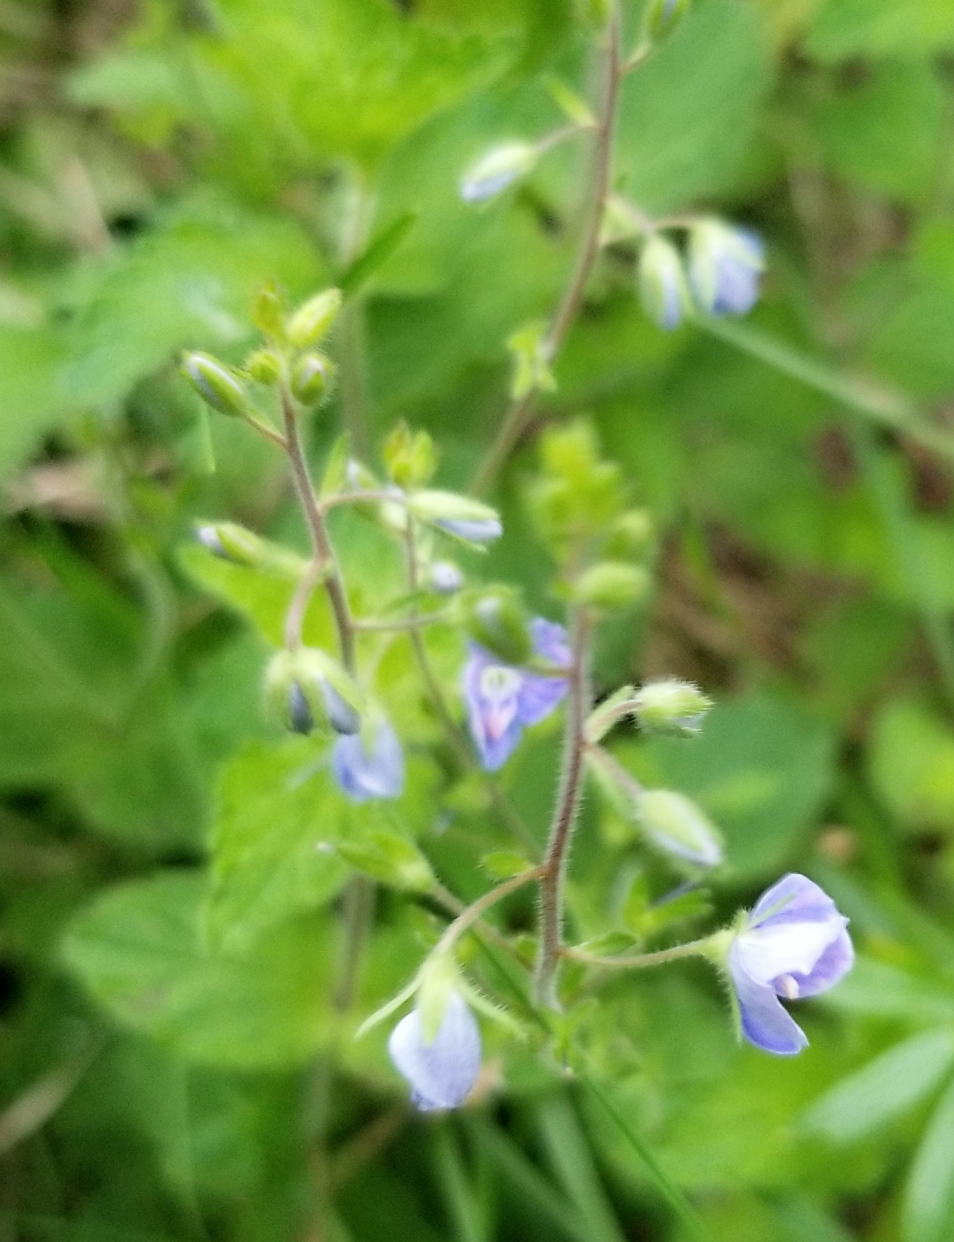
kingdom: Plantae
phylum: Tracheophyta
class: Magnoliopsida
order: Lamiales
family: Plantaginaceae
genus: Veronica
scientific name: Veronica chamaedrys
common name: Germander speedwell
